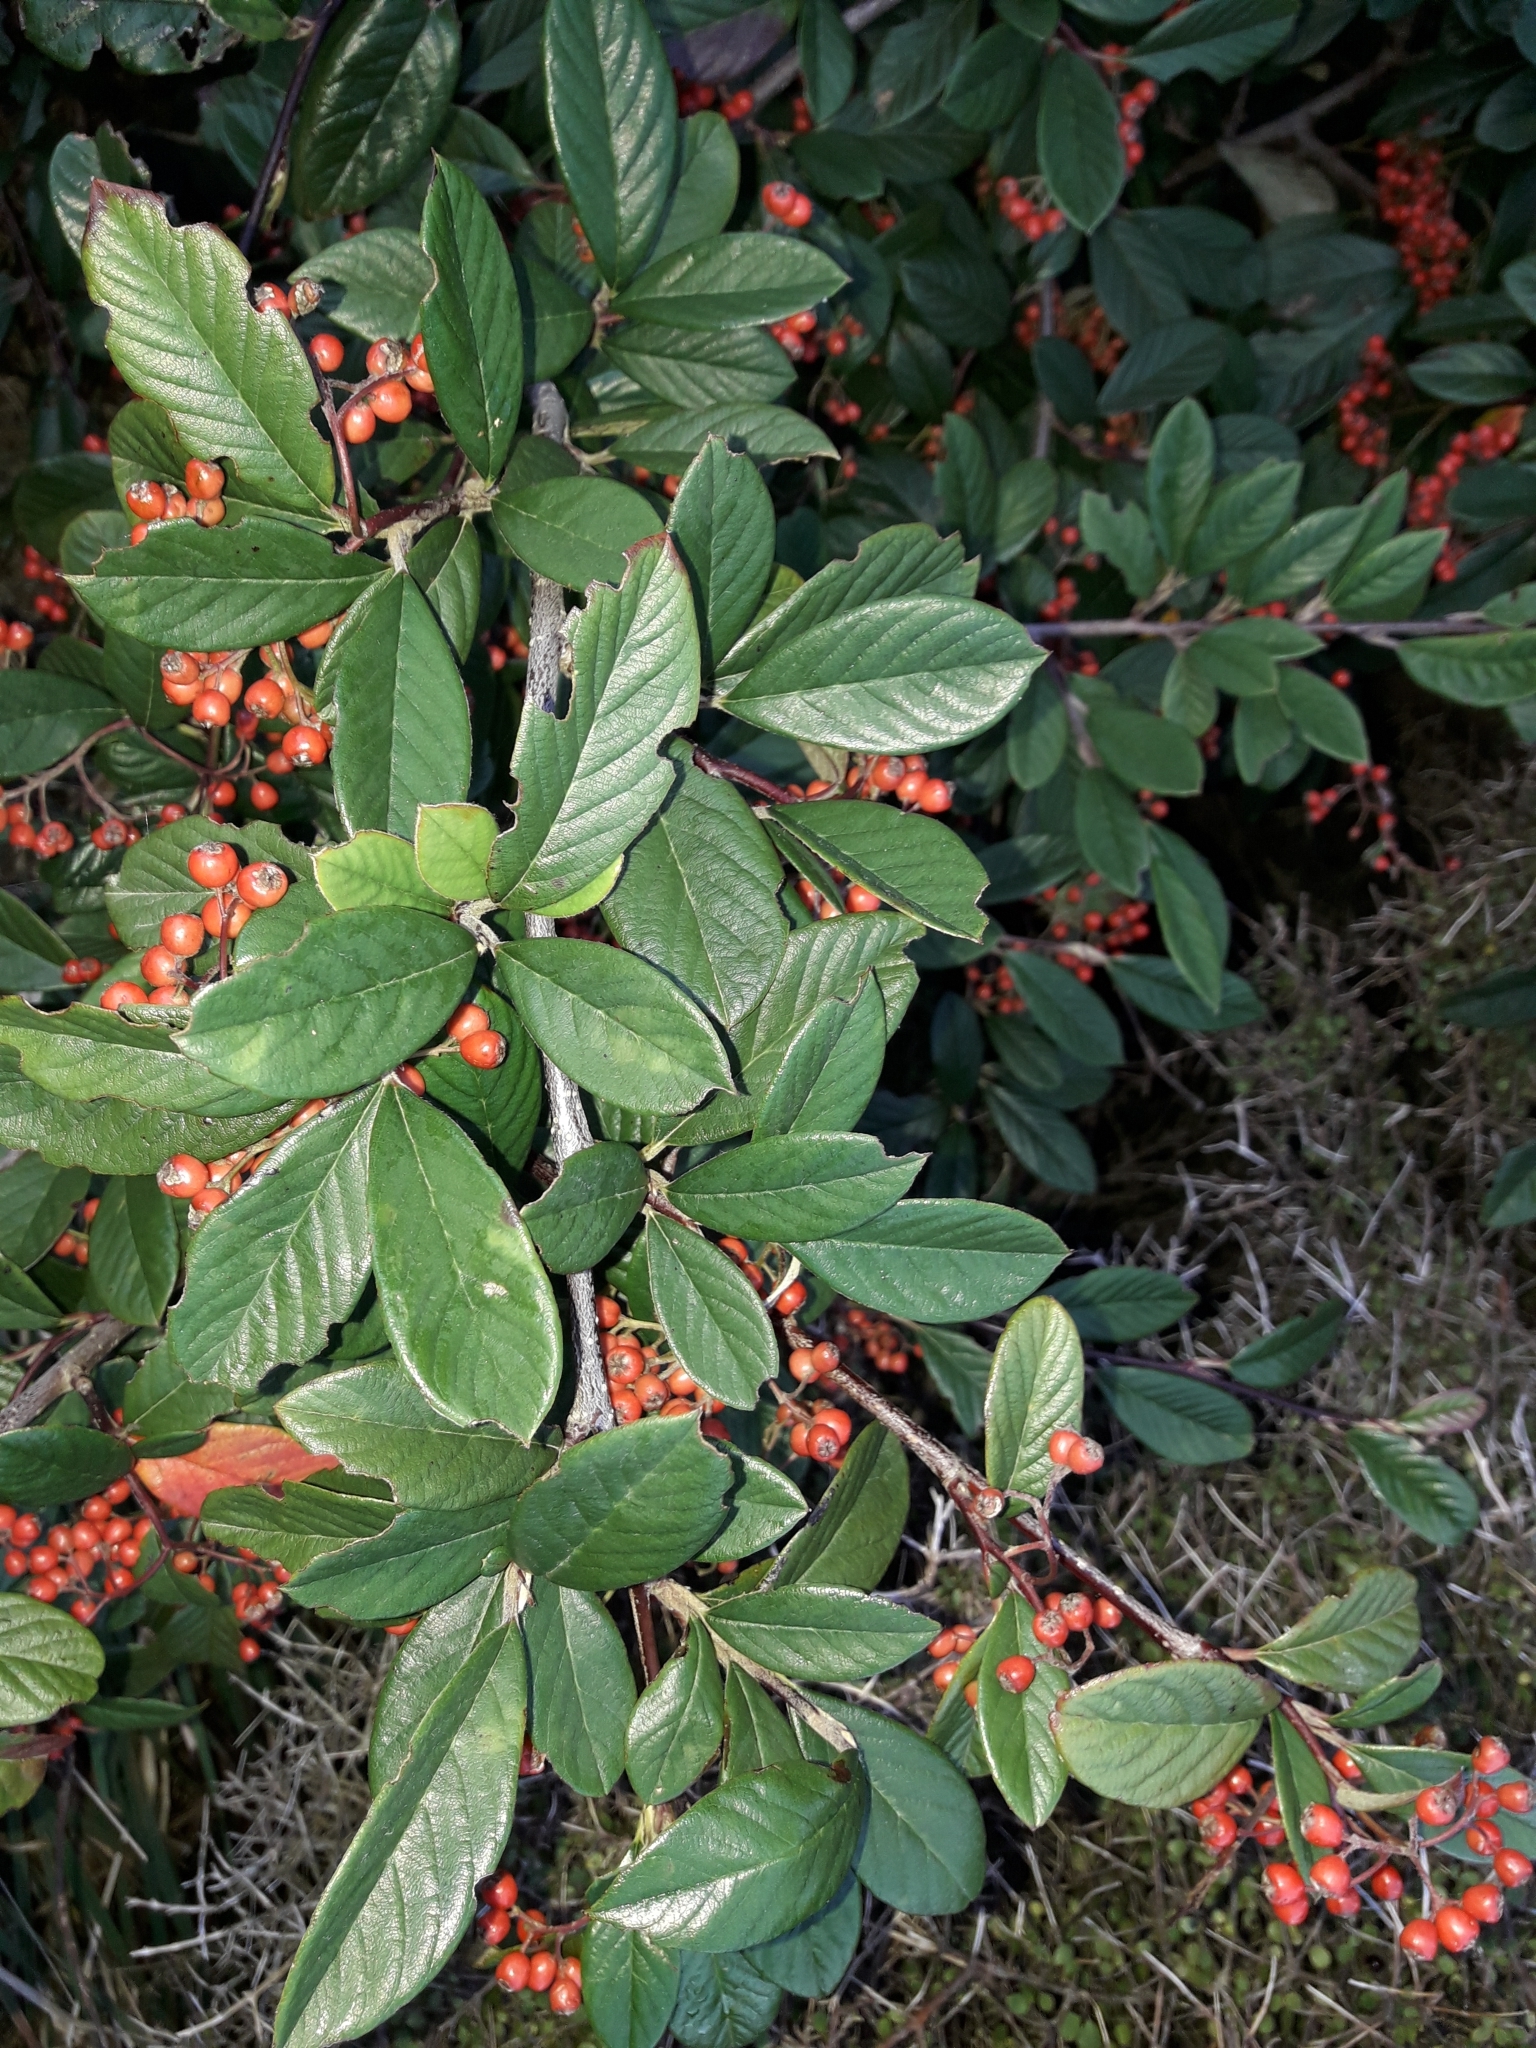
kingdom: Plantae
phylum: Tracheophyta
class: Magnoliopsida
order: Rosales
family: Rosaceae
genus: Cotoneaster
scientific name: Cotoneaster coriaceus
